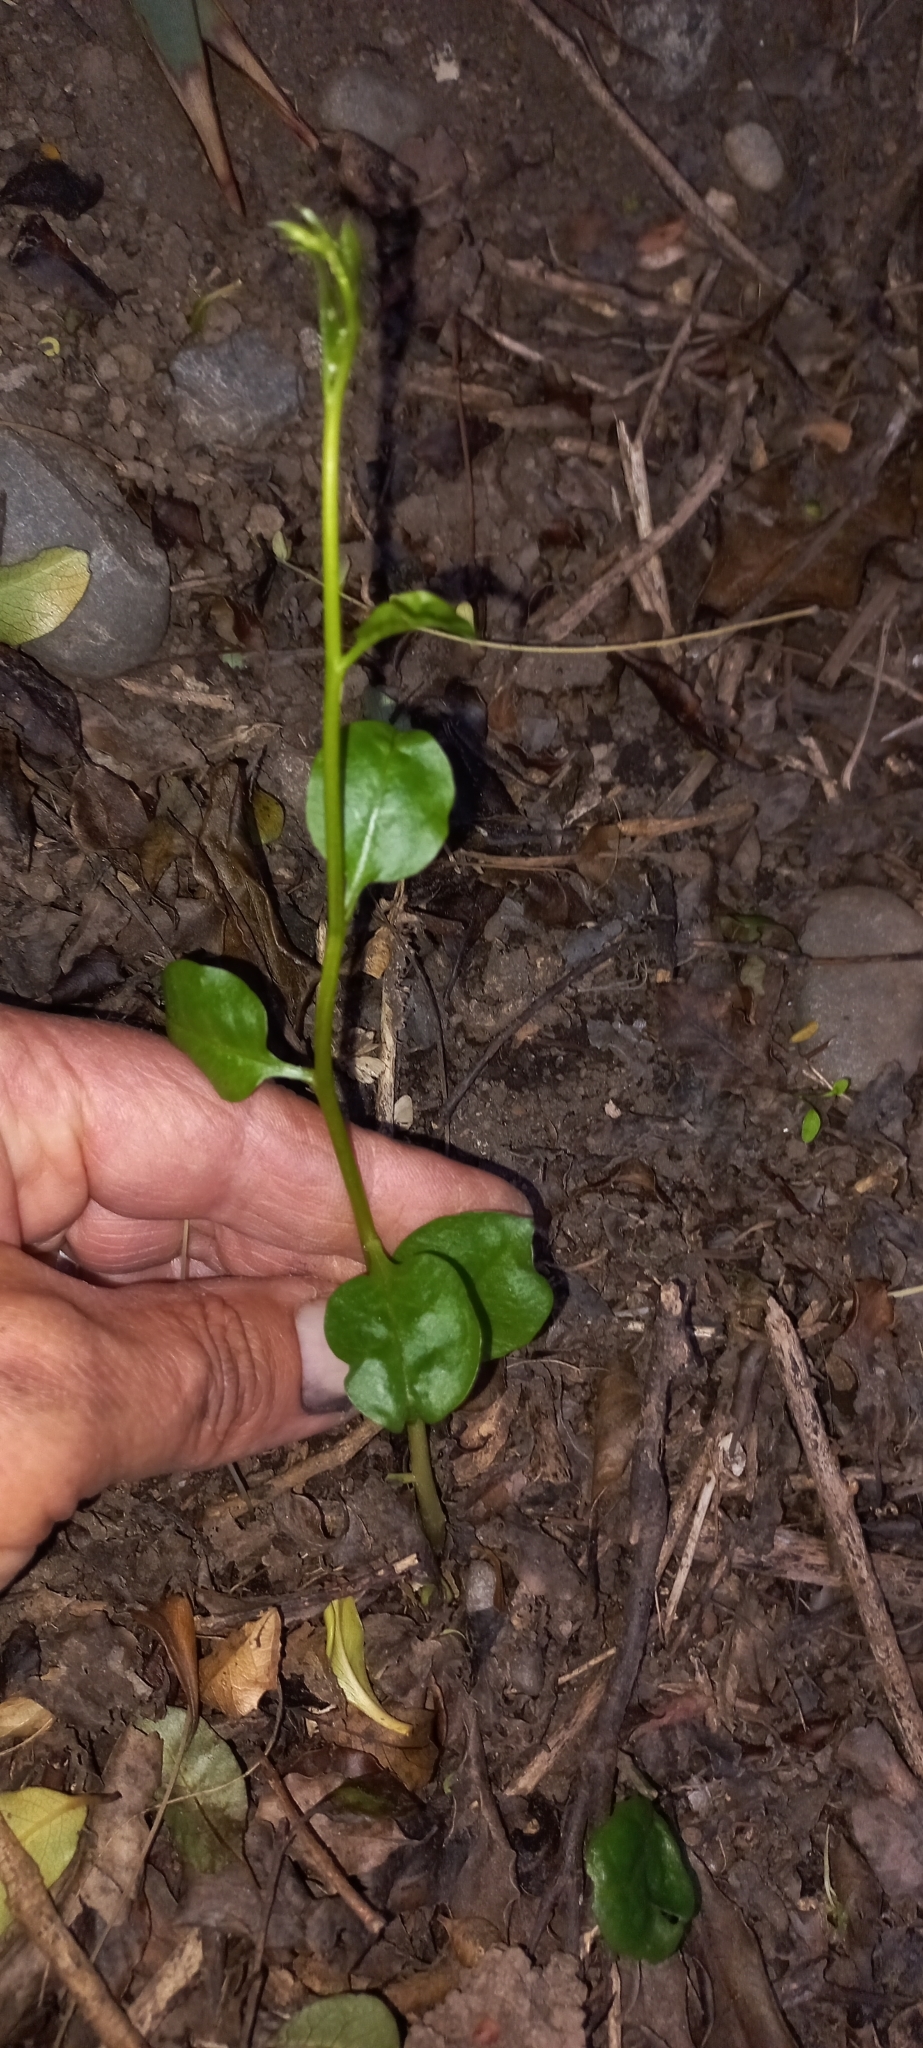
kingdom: Plantae
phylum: Tracheophyta
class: Magnoliopsida
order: Caryophyllales
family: Basellaceae
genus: Anredera
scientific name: Anredera cordifolia
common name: Heartleaf madeiravine
